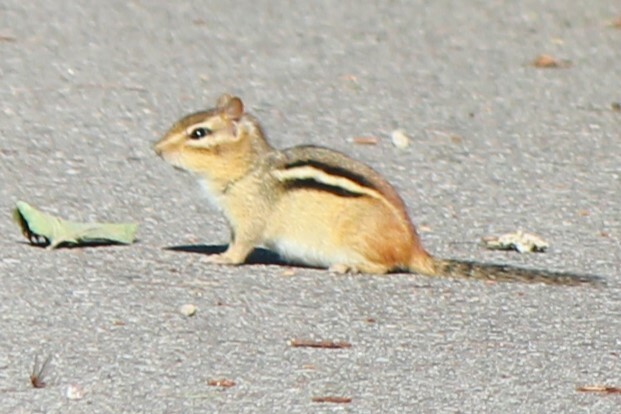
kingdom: Animalia
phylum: Chordata
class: Mammalia
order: Rodentia
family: Sciuridae
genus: Tamias
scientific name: Tamias striatus
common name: Eastern chipmunk
